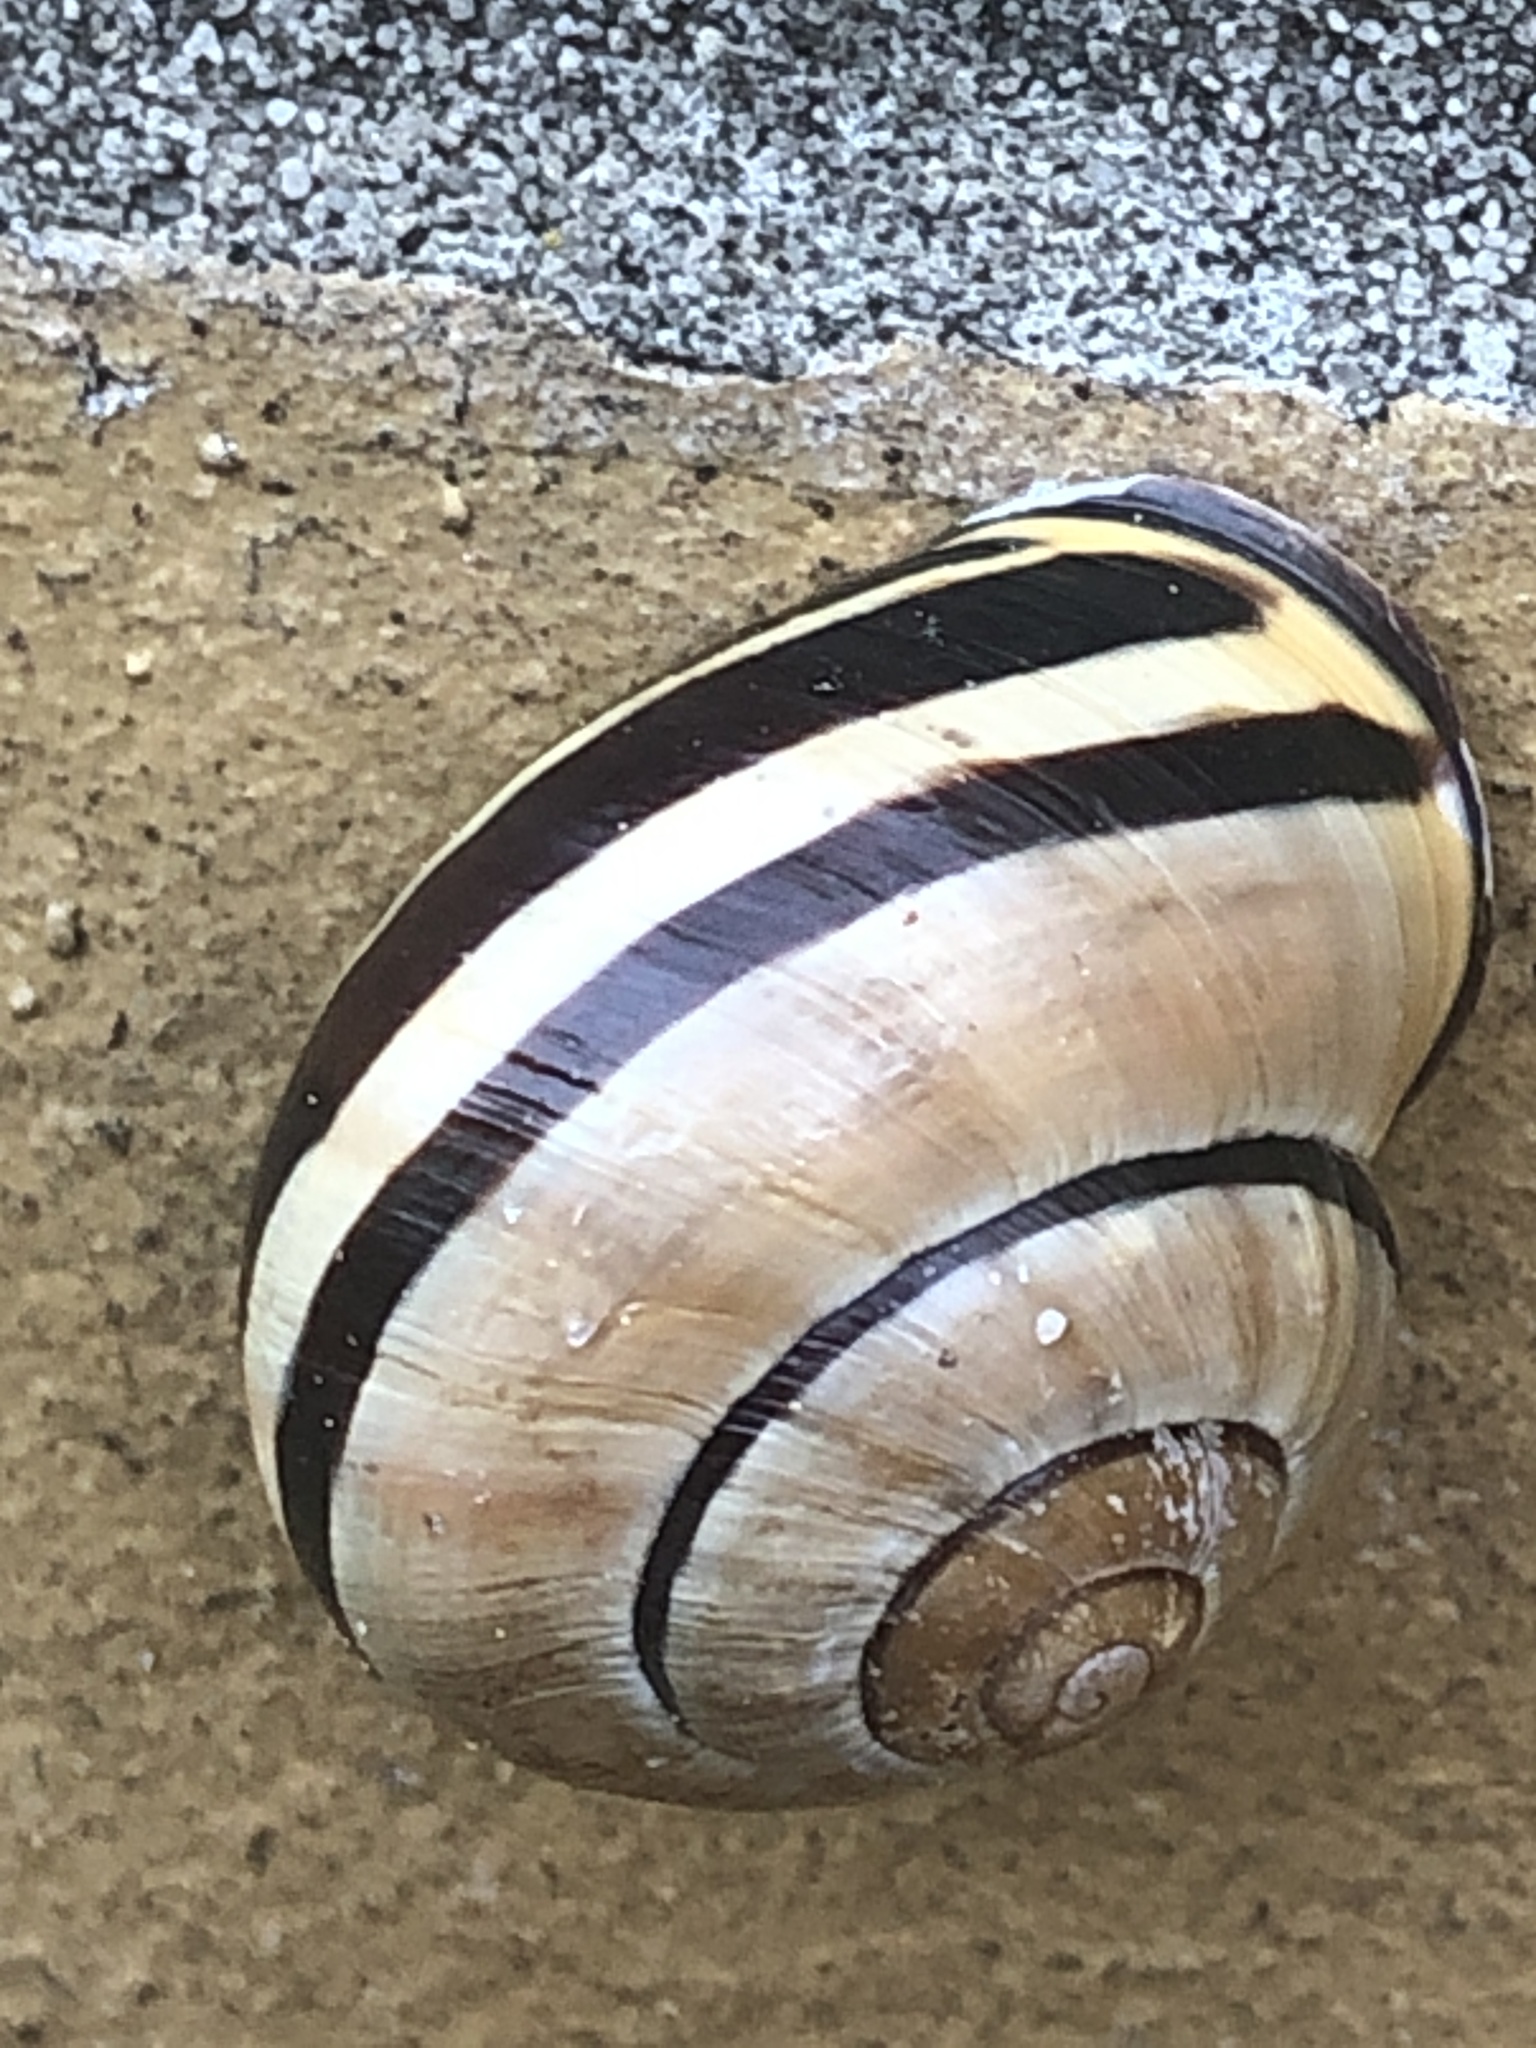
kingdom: Animalia
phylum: Mollusca
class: Gastropoda
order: Stylommatophora
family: Helicidae
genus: Cepaea
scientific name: Cepaea nemoralis
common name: Grovesnail
